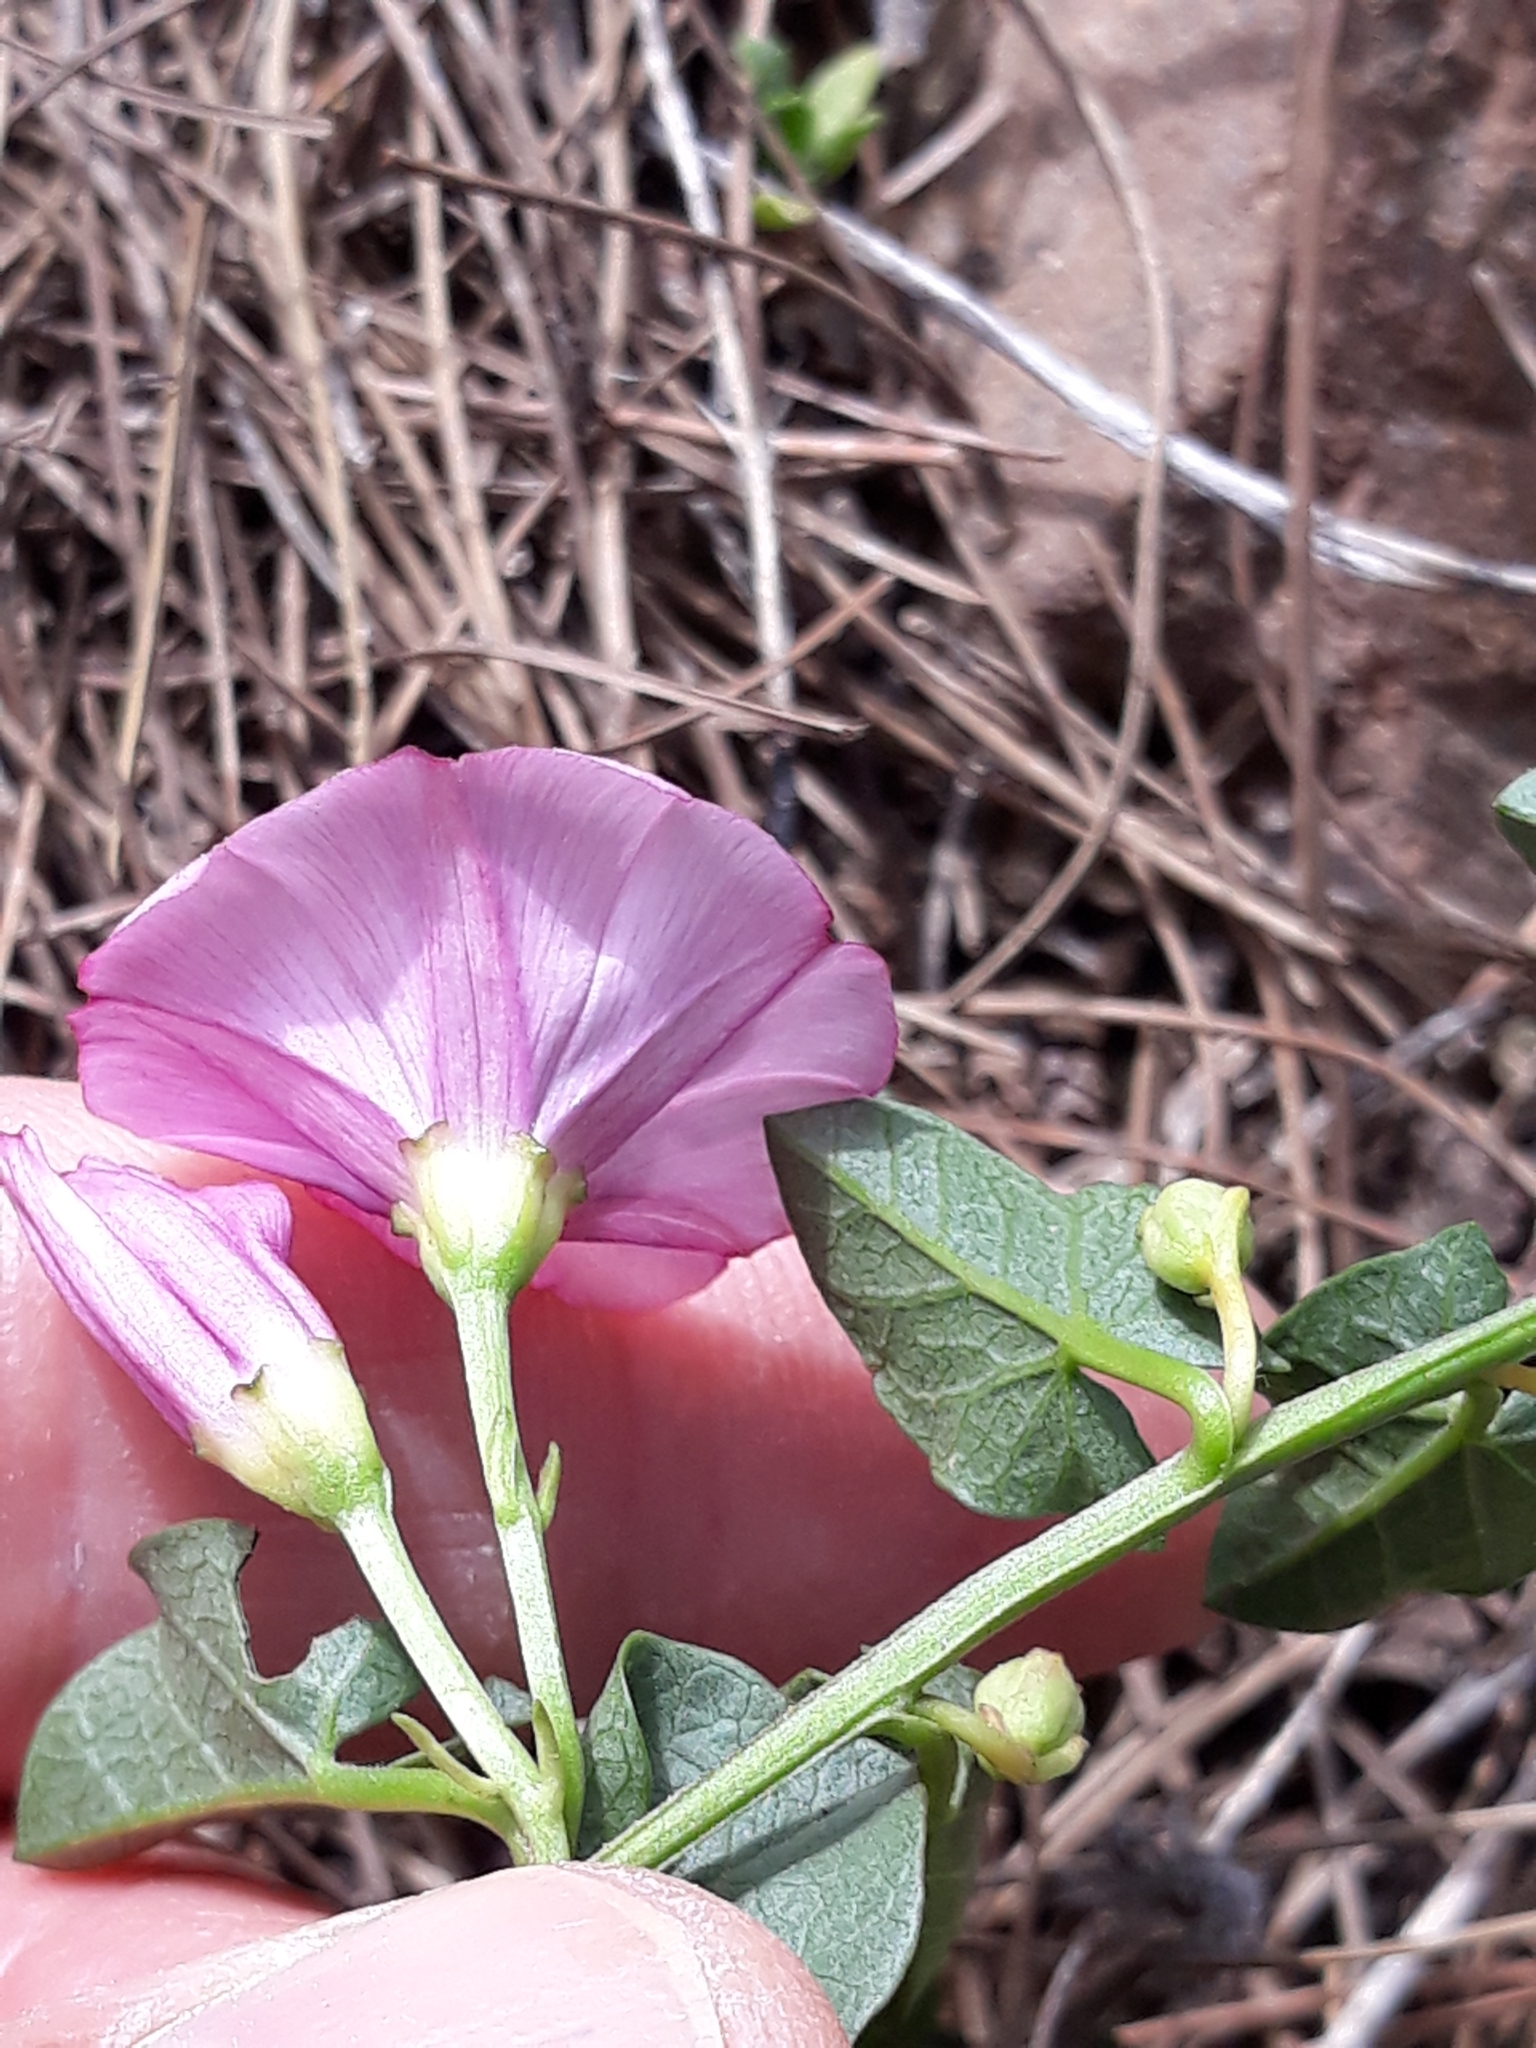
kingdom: Plantae
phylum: Tracheophyta
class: Magnoliopsida
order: Solanales
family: Convolvulaceae
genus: Convolvulus
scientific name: Convolvulus durandoi
